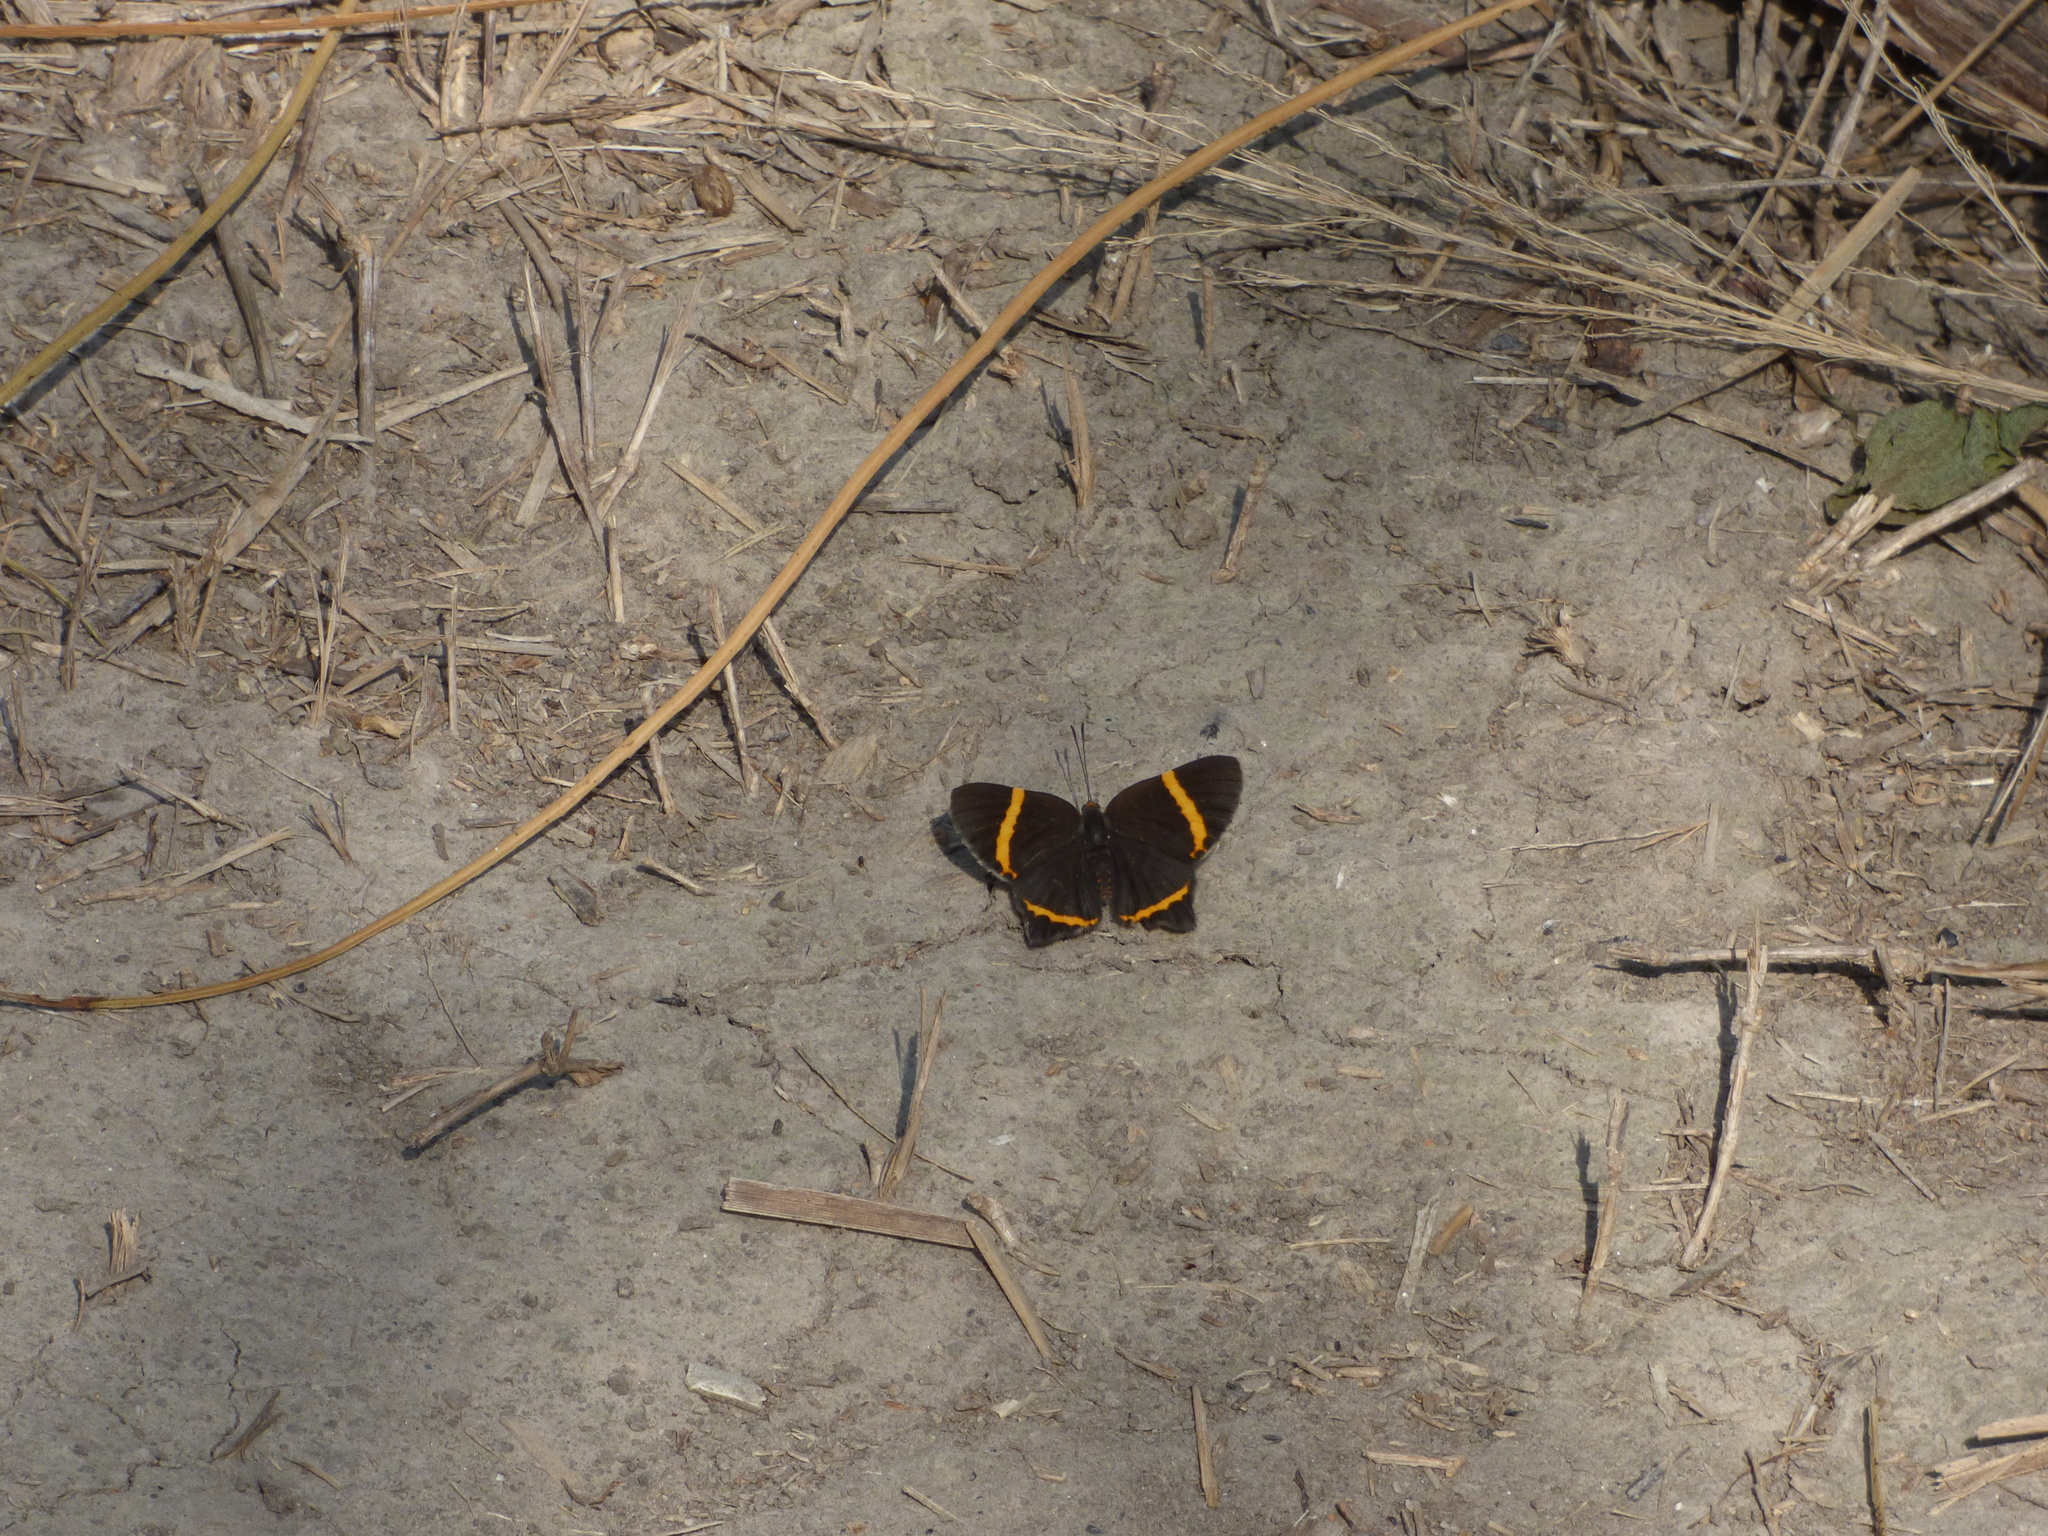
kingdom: Animalia
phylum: Arthropoda
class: Insecta
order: Lepidoptera
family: Riodinidae
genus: Riodina
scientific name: Riodina lysippoides
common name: Little dancer metalmark
